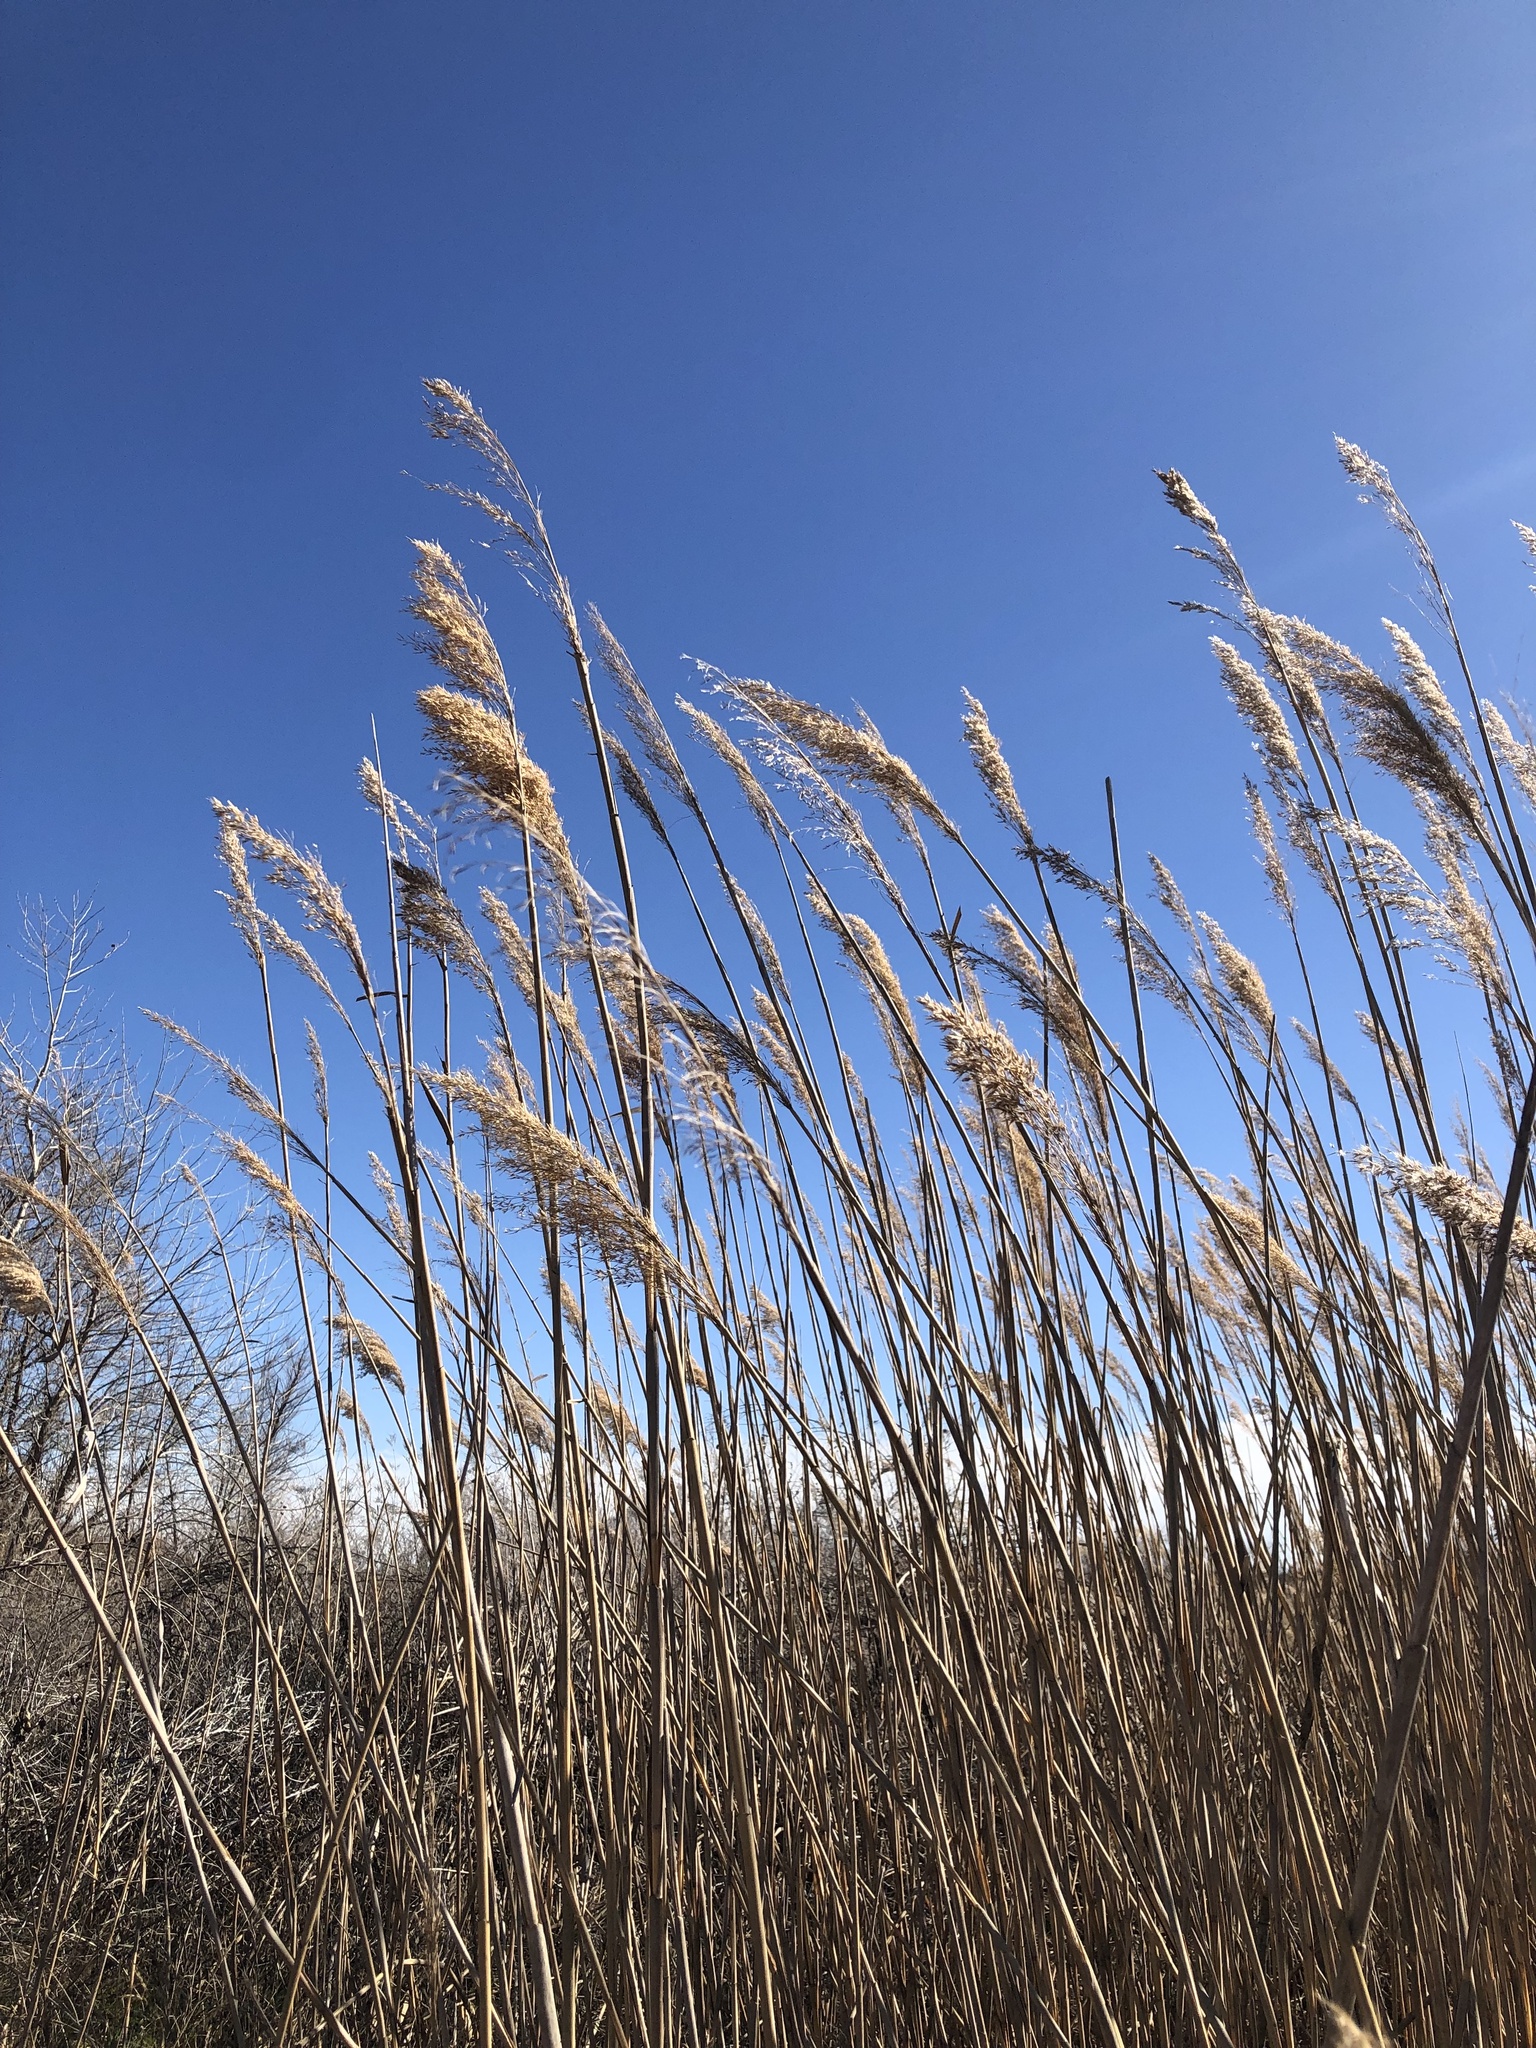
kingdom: Plantae
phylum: Tracheophyta
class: Liliopsida
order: Poales
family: Poaceae
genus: Phragmites
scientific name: Phragmites australis
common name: Common reed
